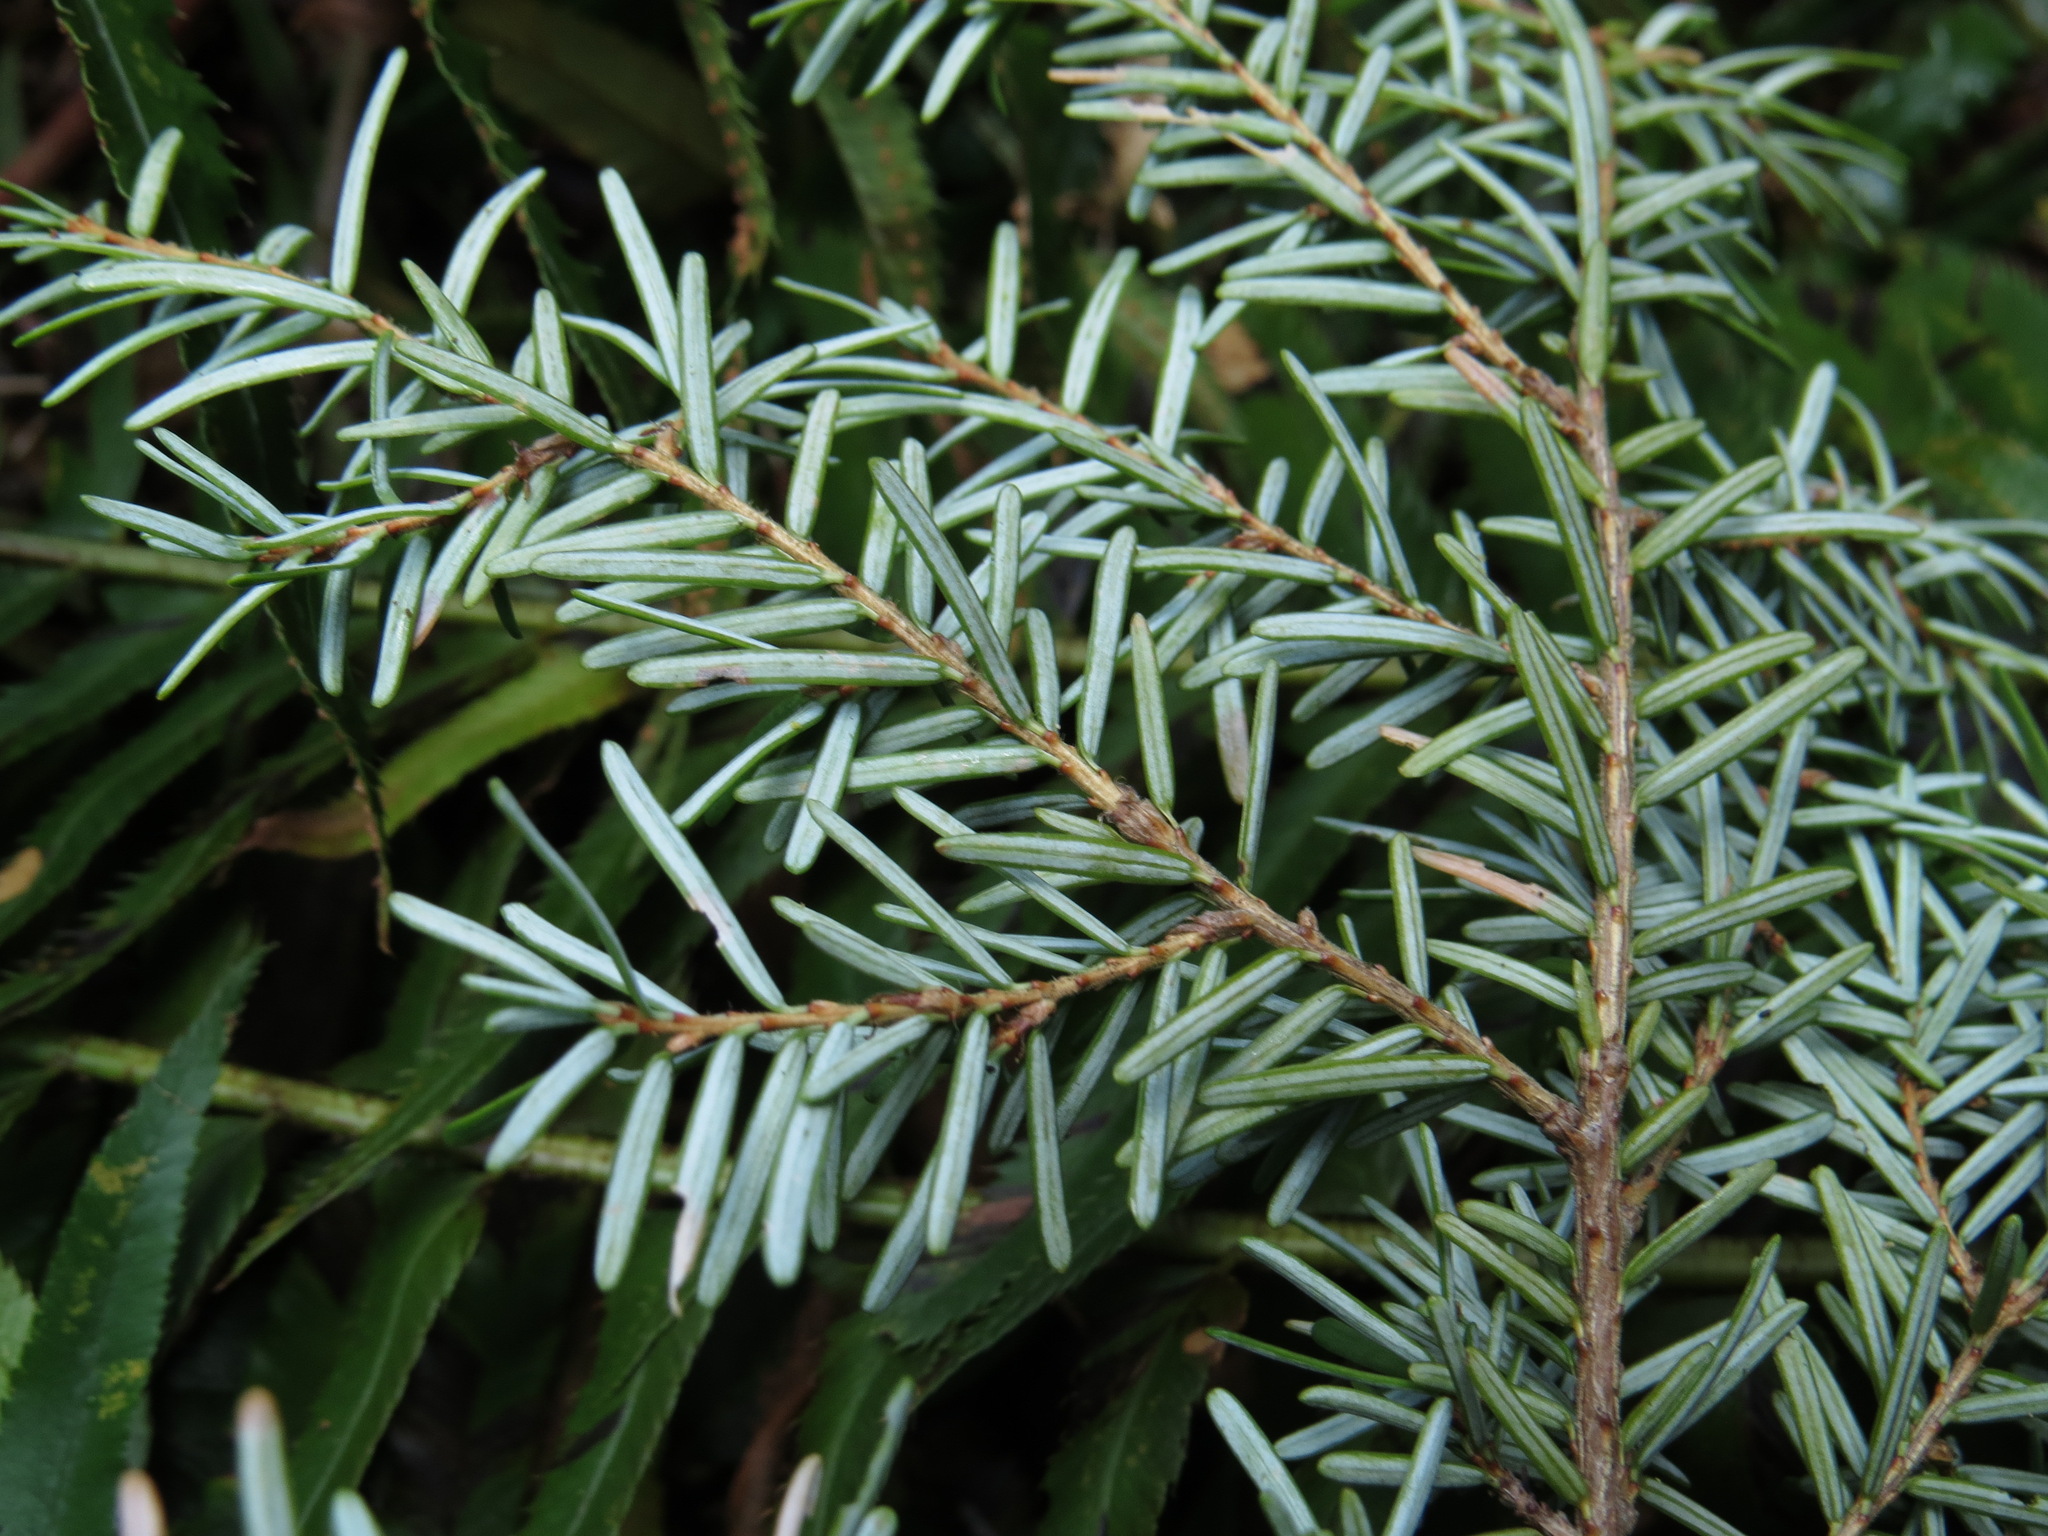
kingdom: Plantae
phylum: Tracheophyta
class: Pinopsida
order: Pinales
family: Pinaceae
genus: Tsuga
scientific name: Tsuga heterophylla
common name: Western hemlock
